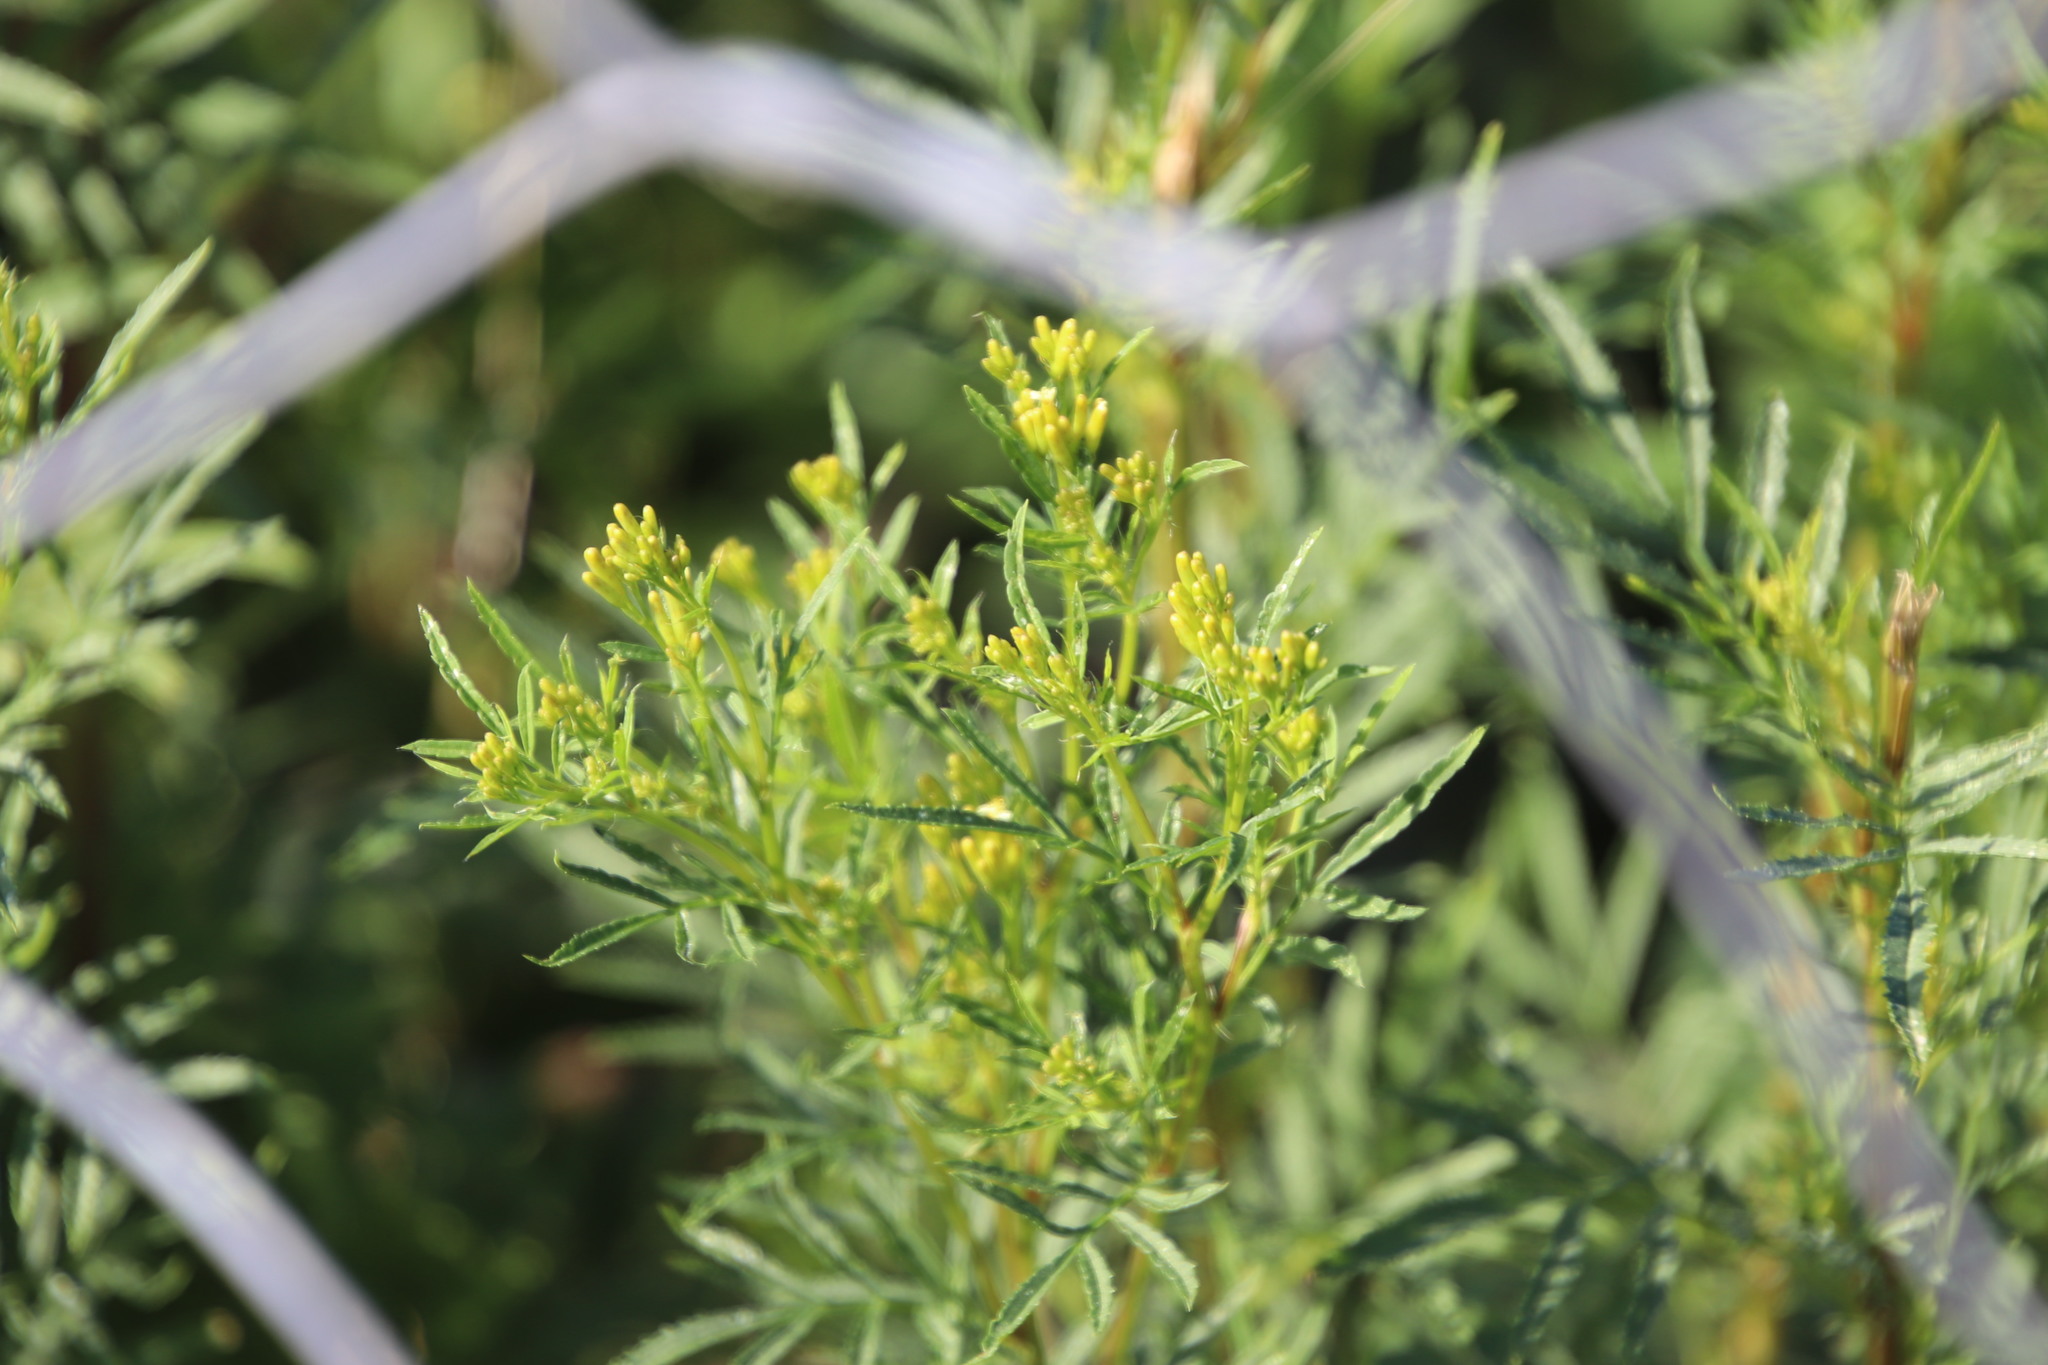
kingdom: Plantae
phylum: Tracheophyta
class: Magnoliopsida
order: Asterales
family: Asteraceae
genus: Tagetes
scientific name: Tagetes minuta
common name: Muster john henry
